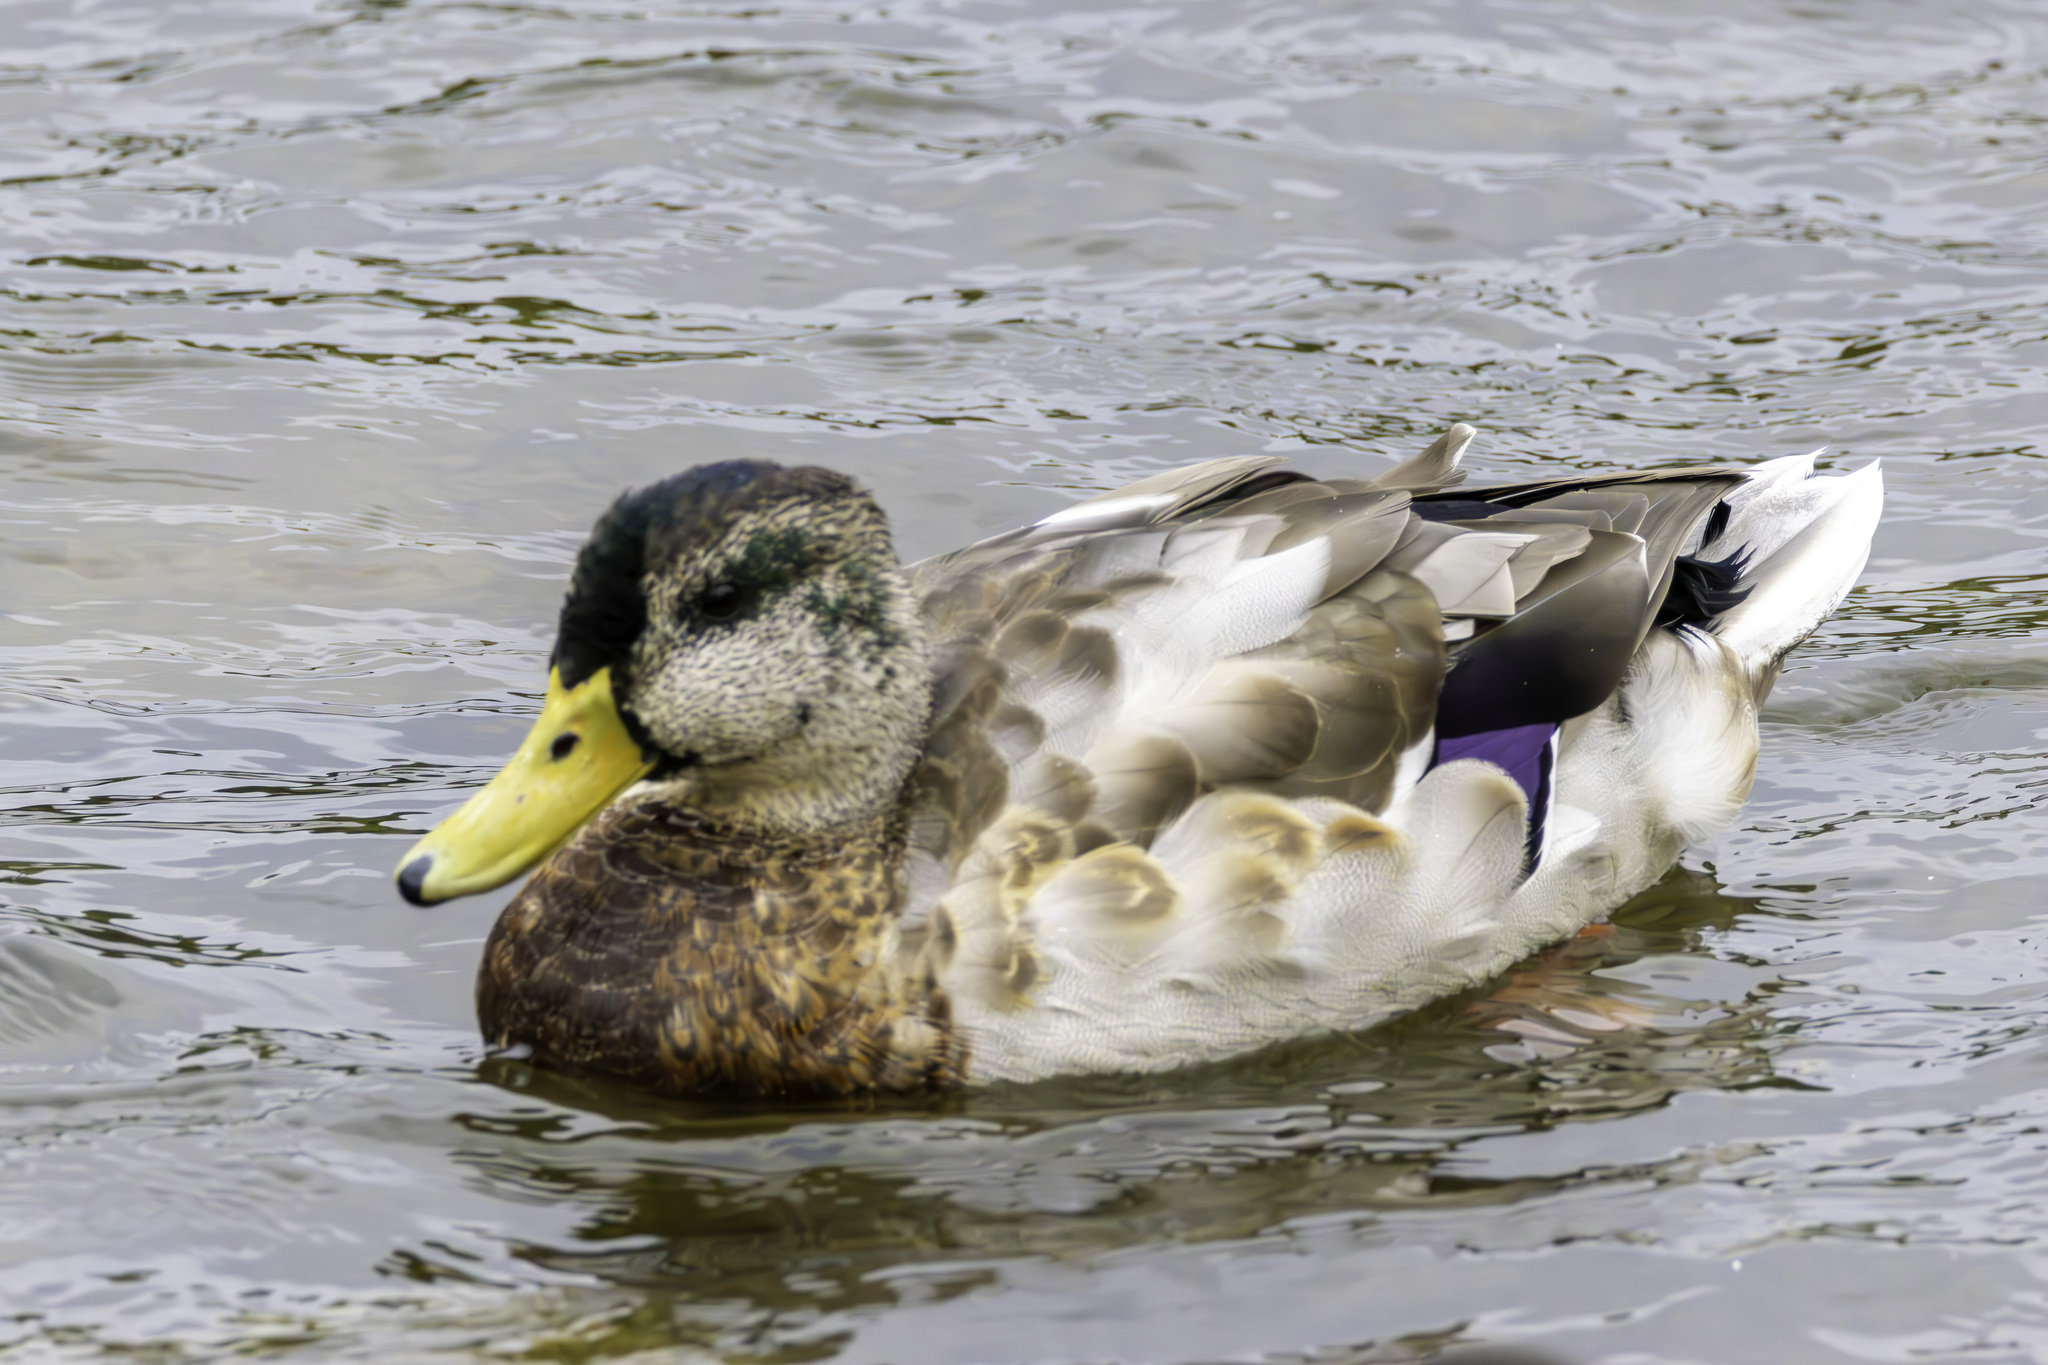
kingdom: Animalia
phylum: Chordata
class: Aves
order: Anseriformes
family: Anatidae
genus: Anas
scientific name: Anas platyrhynchos
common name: Mallard
